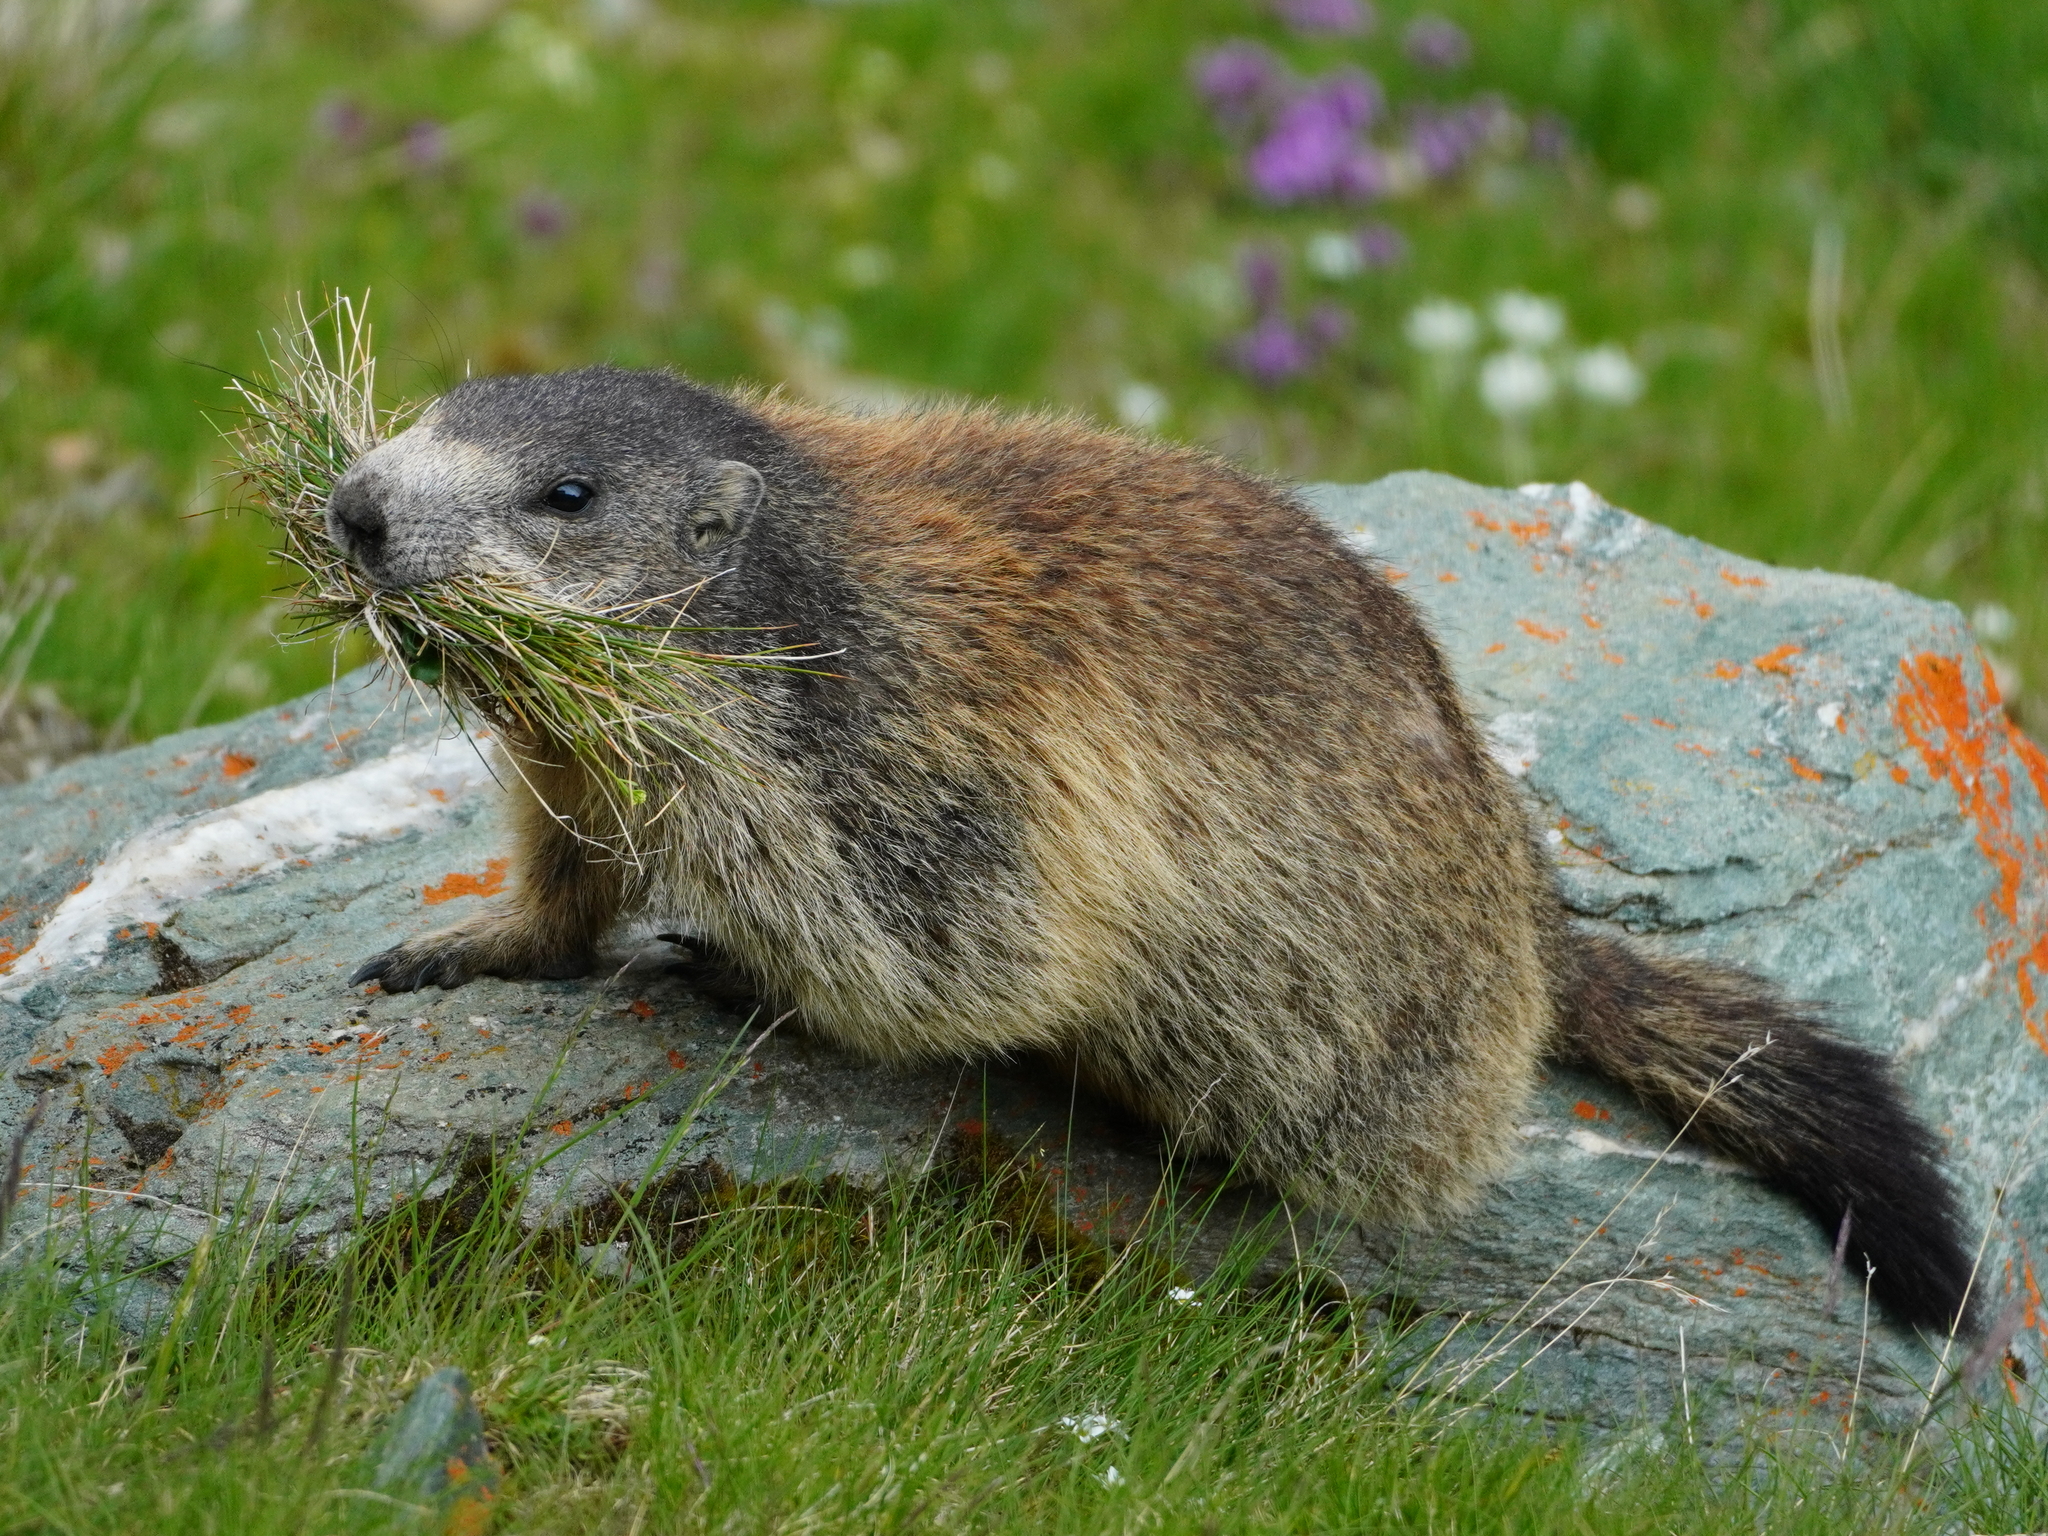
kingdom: Animalia
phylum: Chordata
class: Mammalia
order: Rodentia
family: Sciuridae
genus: Marmota
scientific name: Marmota marmota
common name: Alpine marmot
